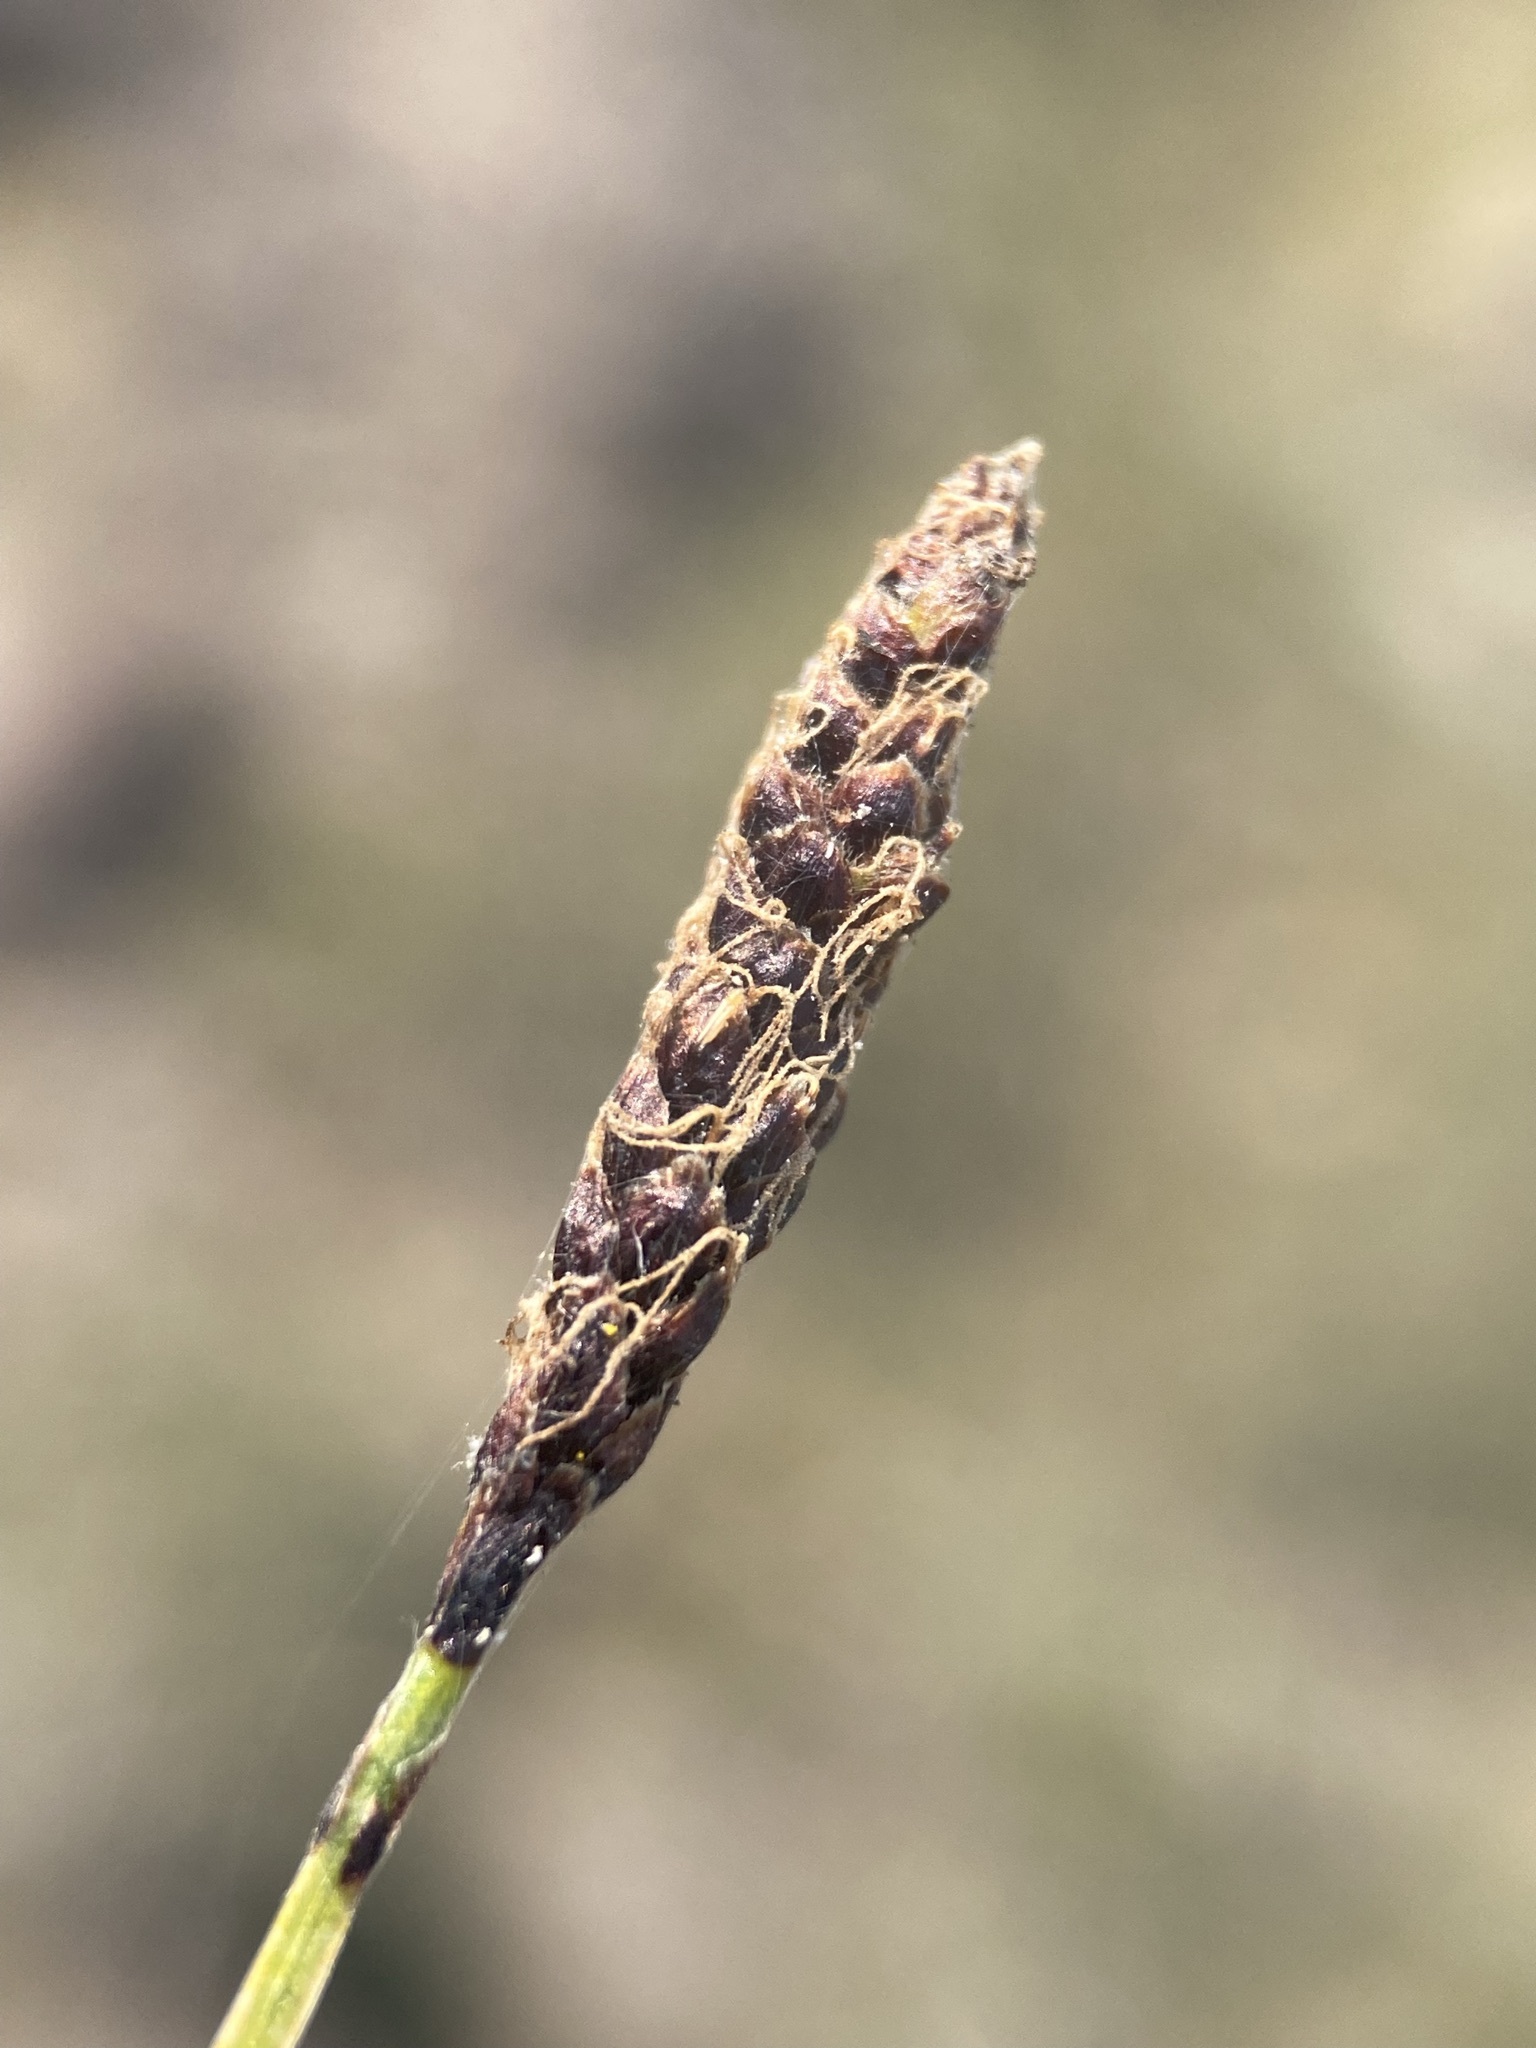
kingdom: Plantae
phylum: Tracheophyta
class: Liliopsida
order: Poales
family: Cyperaceae
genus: Carex
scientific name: Carex scirpoidea
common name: Canada single-spike sedge
